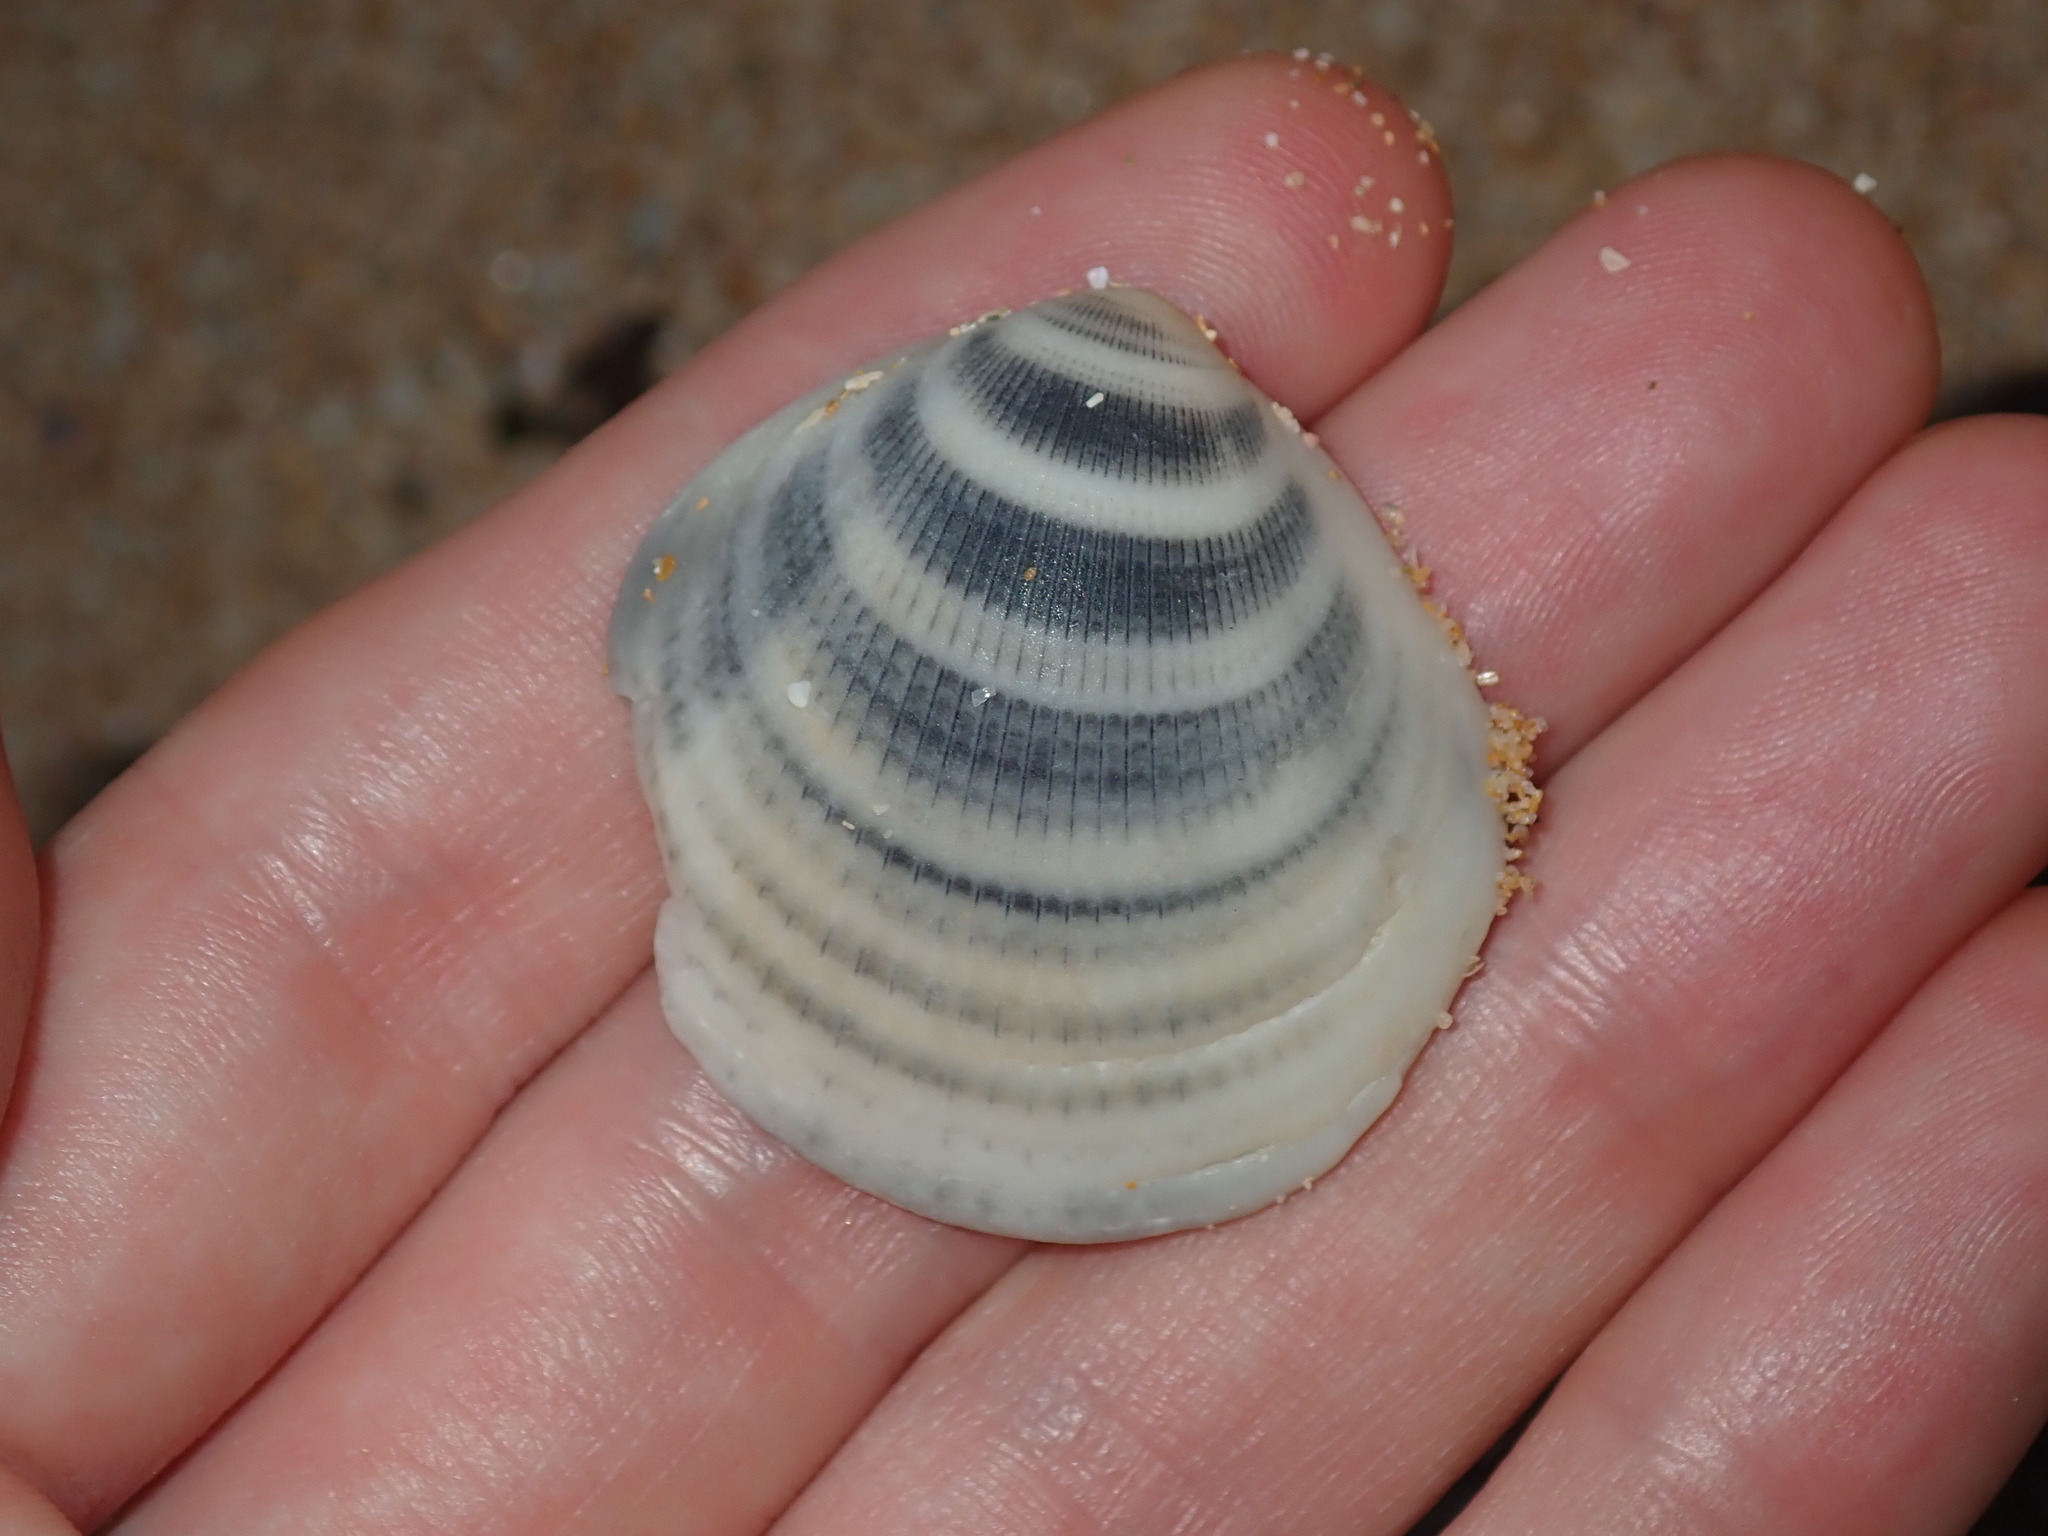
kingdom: Animalia
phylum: Mollusca
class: Bivalvia
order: Arcida
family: Glycymerididae
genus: Glycymeris
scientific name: Glycymeris grayana
